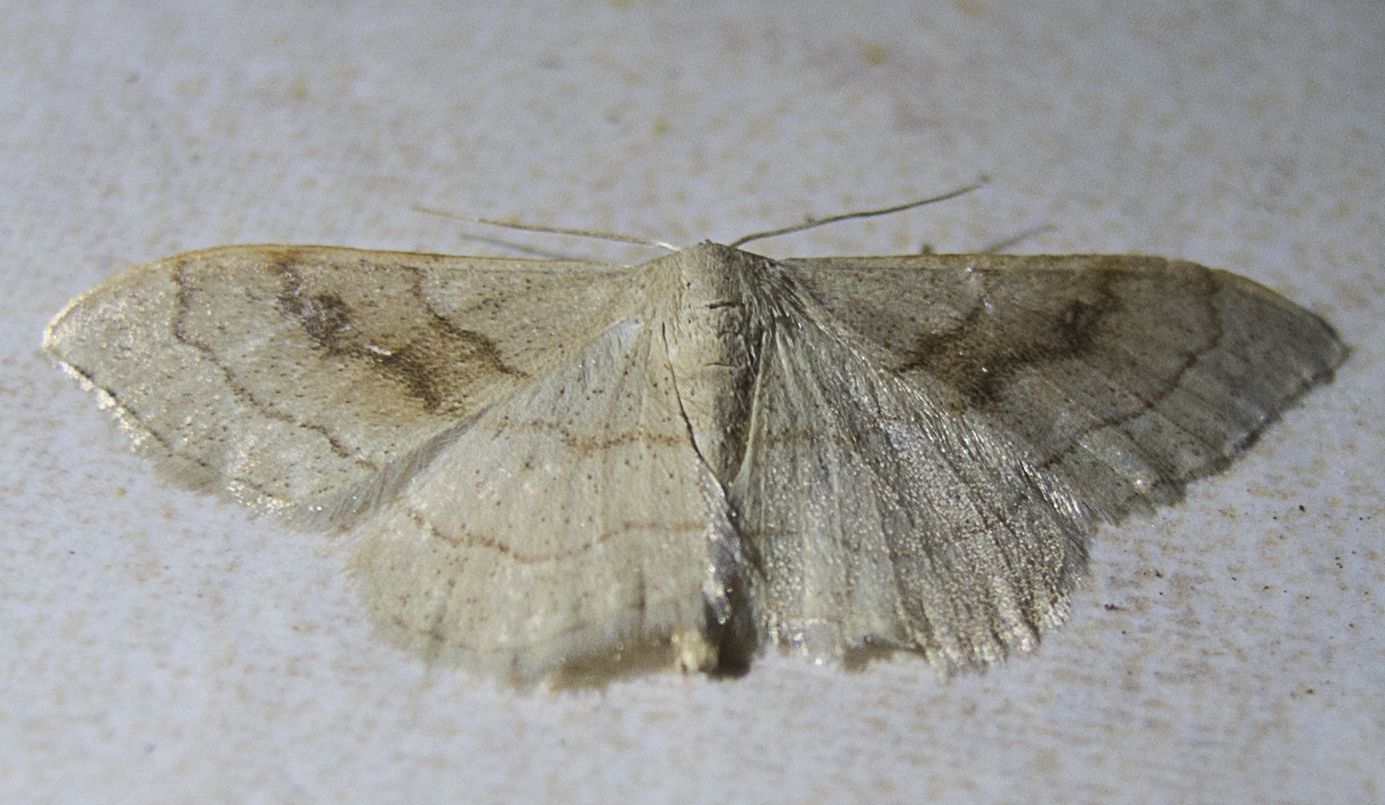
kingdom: Animalia
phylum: Arthropoda
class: Insecta
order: Lepidoptera
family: Geometridae
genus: Idaea
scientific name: Idaea bilinearia
